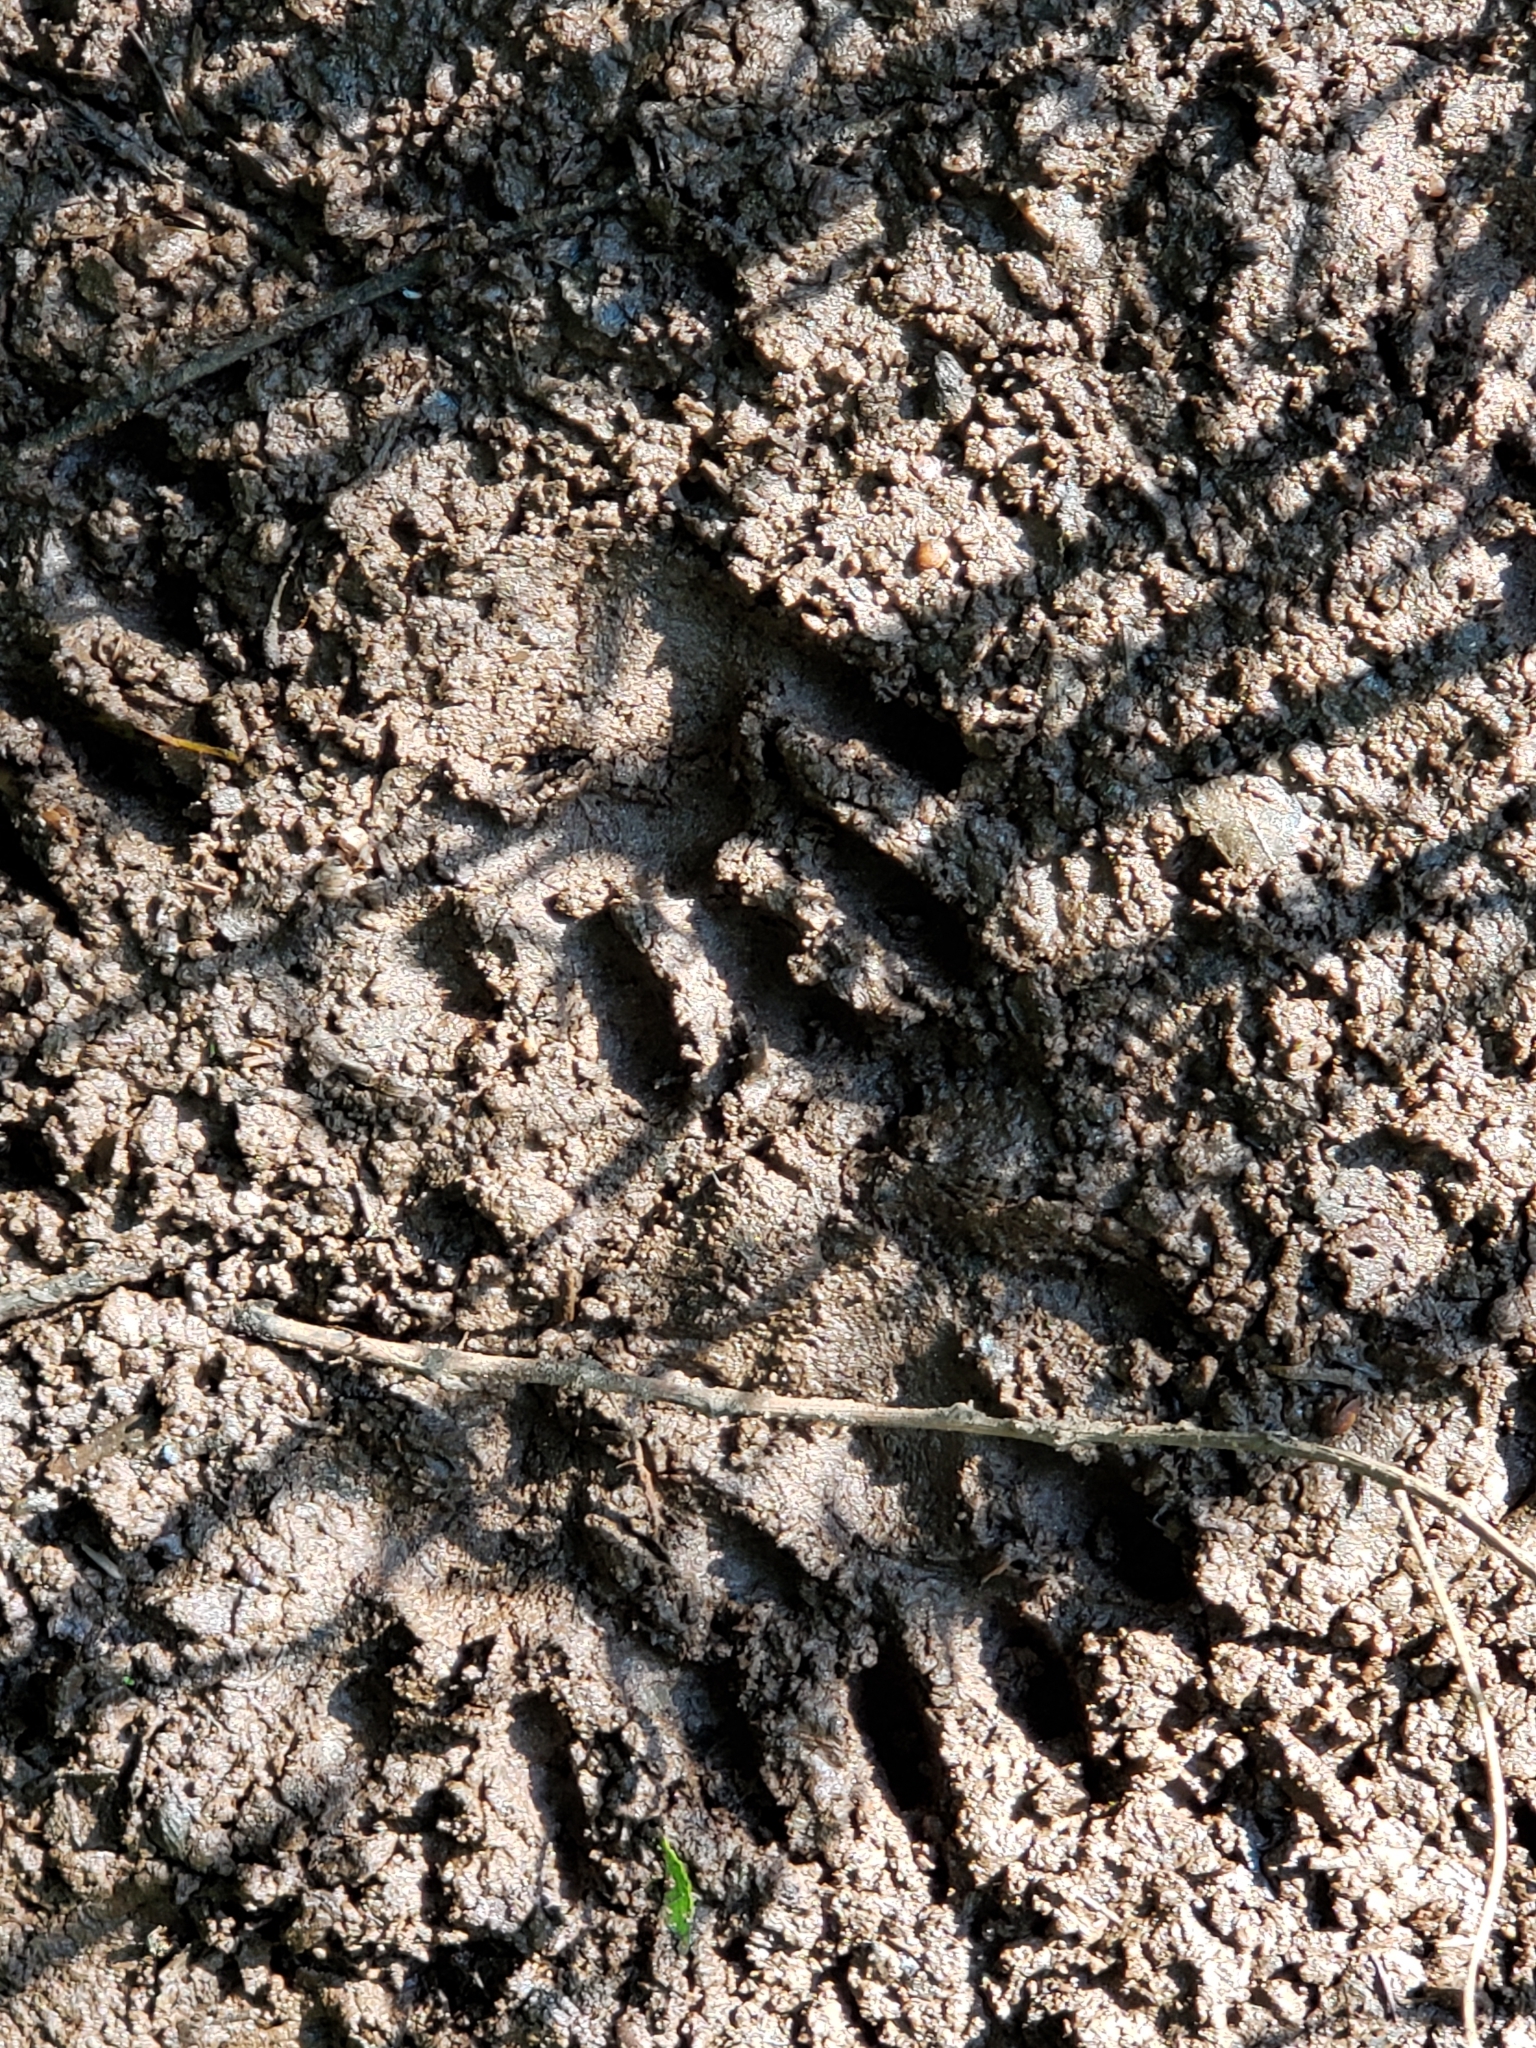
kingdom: Animalia
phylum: Chordata
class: Mammalia
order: Carnivora
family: Procyonidae
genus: Procyon
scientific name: Procyon lotor
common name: Raccoon
